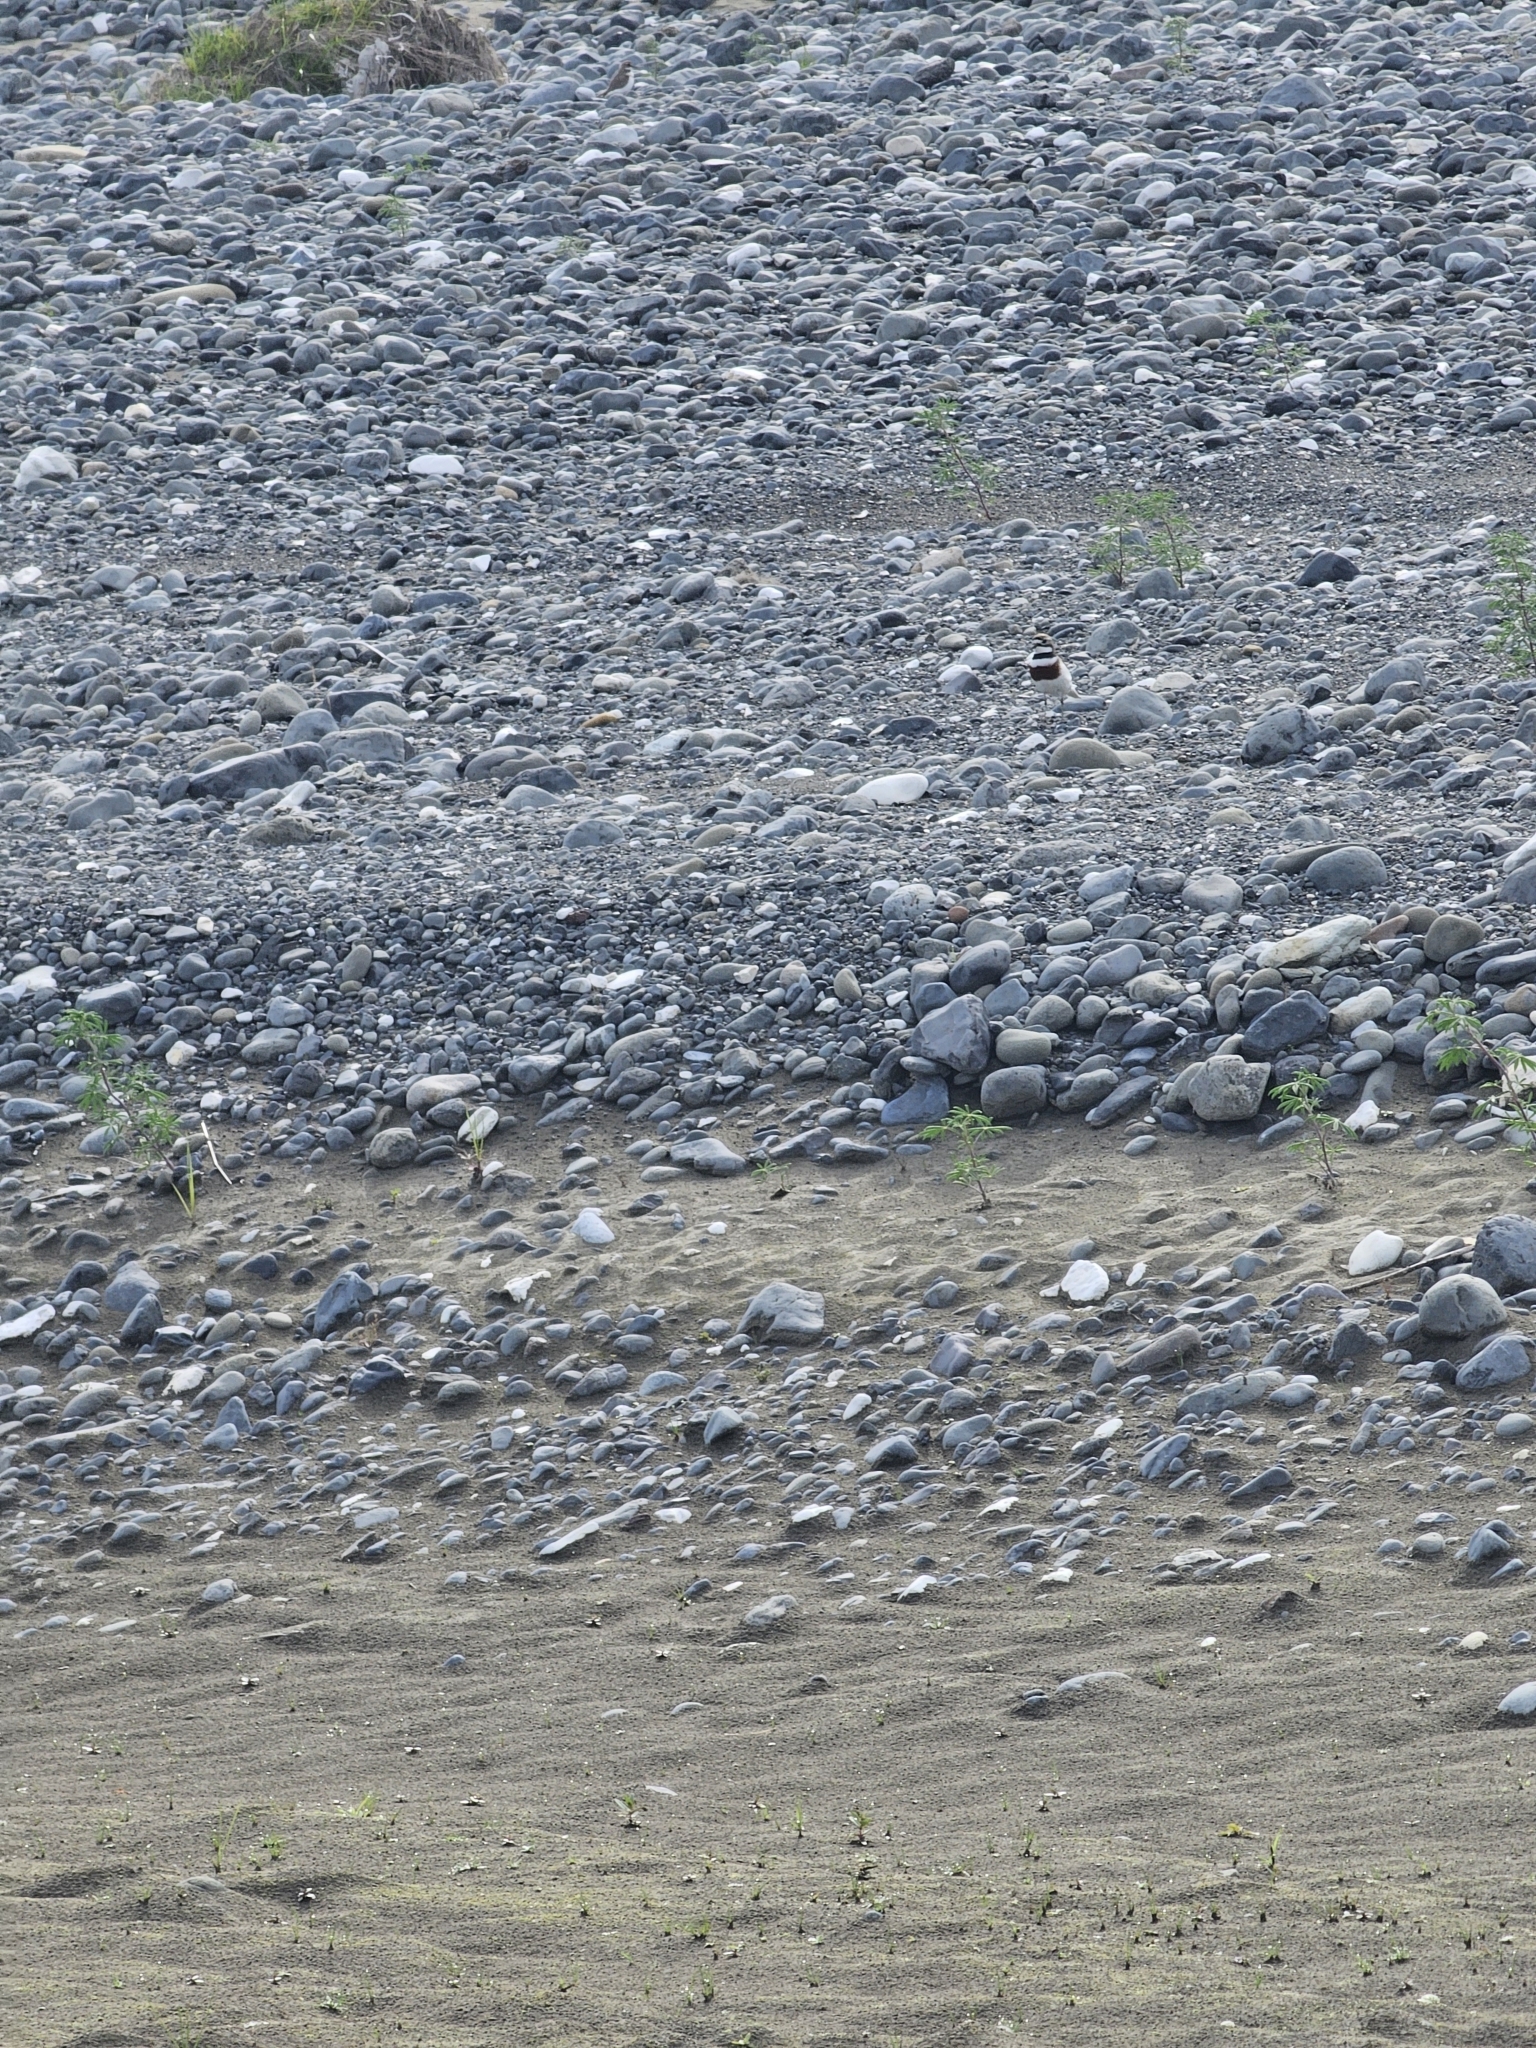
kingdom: Animalia
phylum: Chordata
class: Aves
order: Charadriiformes
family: Charadriidae
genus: Anarhynchus
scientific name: Anarhynchus
